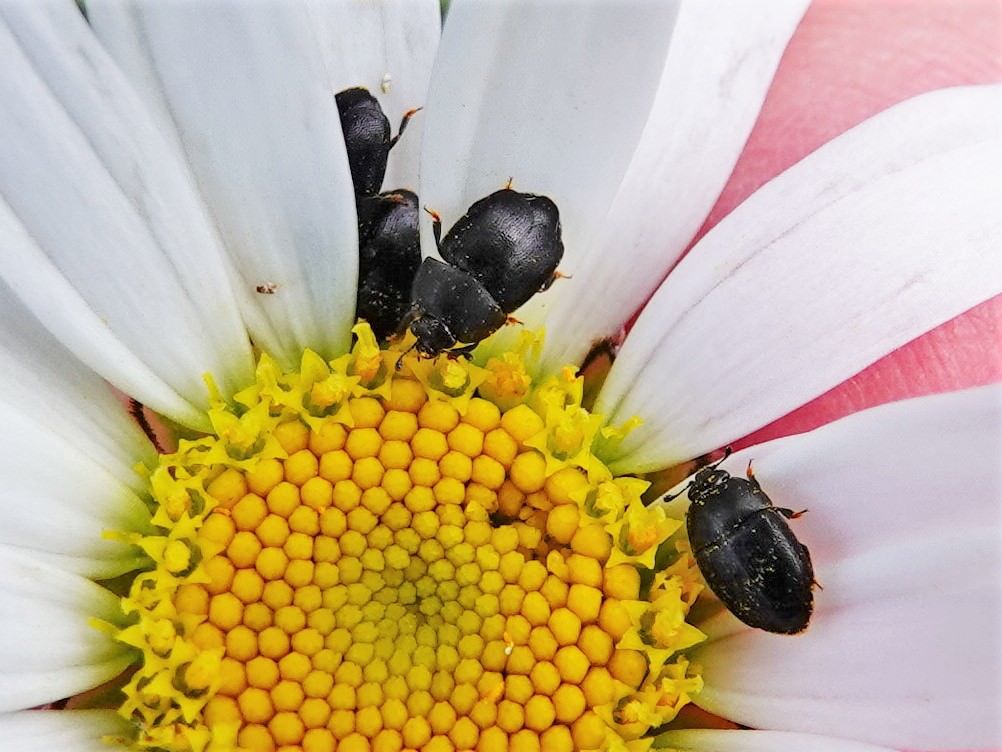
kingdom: Animalia
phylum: Arthropoda
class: Insecta
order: Coleoptera
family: Nitidulidae
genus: Aethina
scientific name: Aethina concolor
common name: Sap beetle
